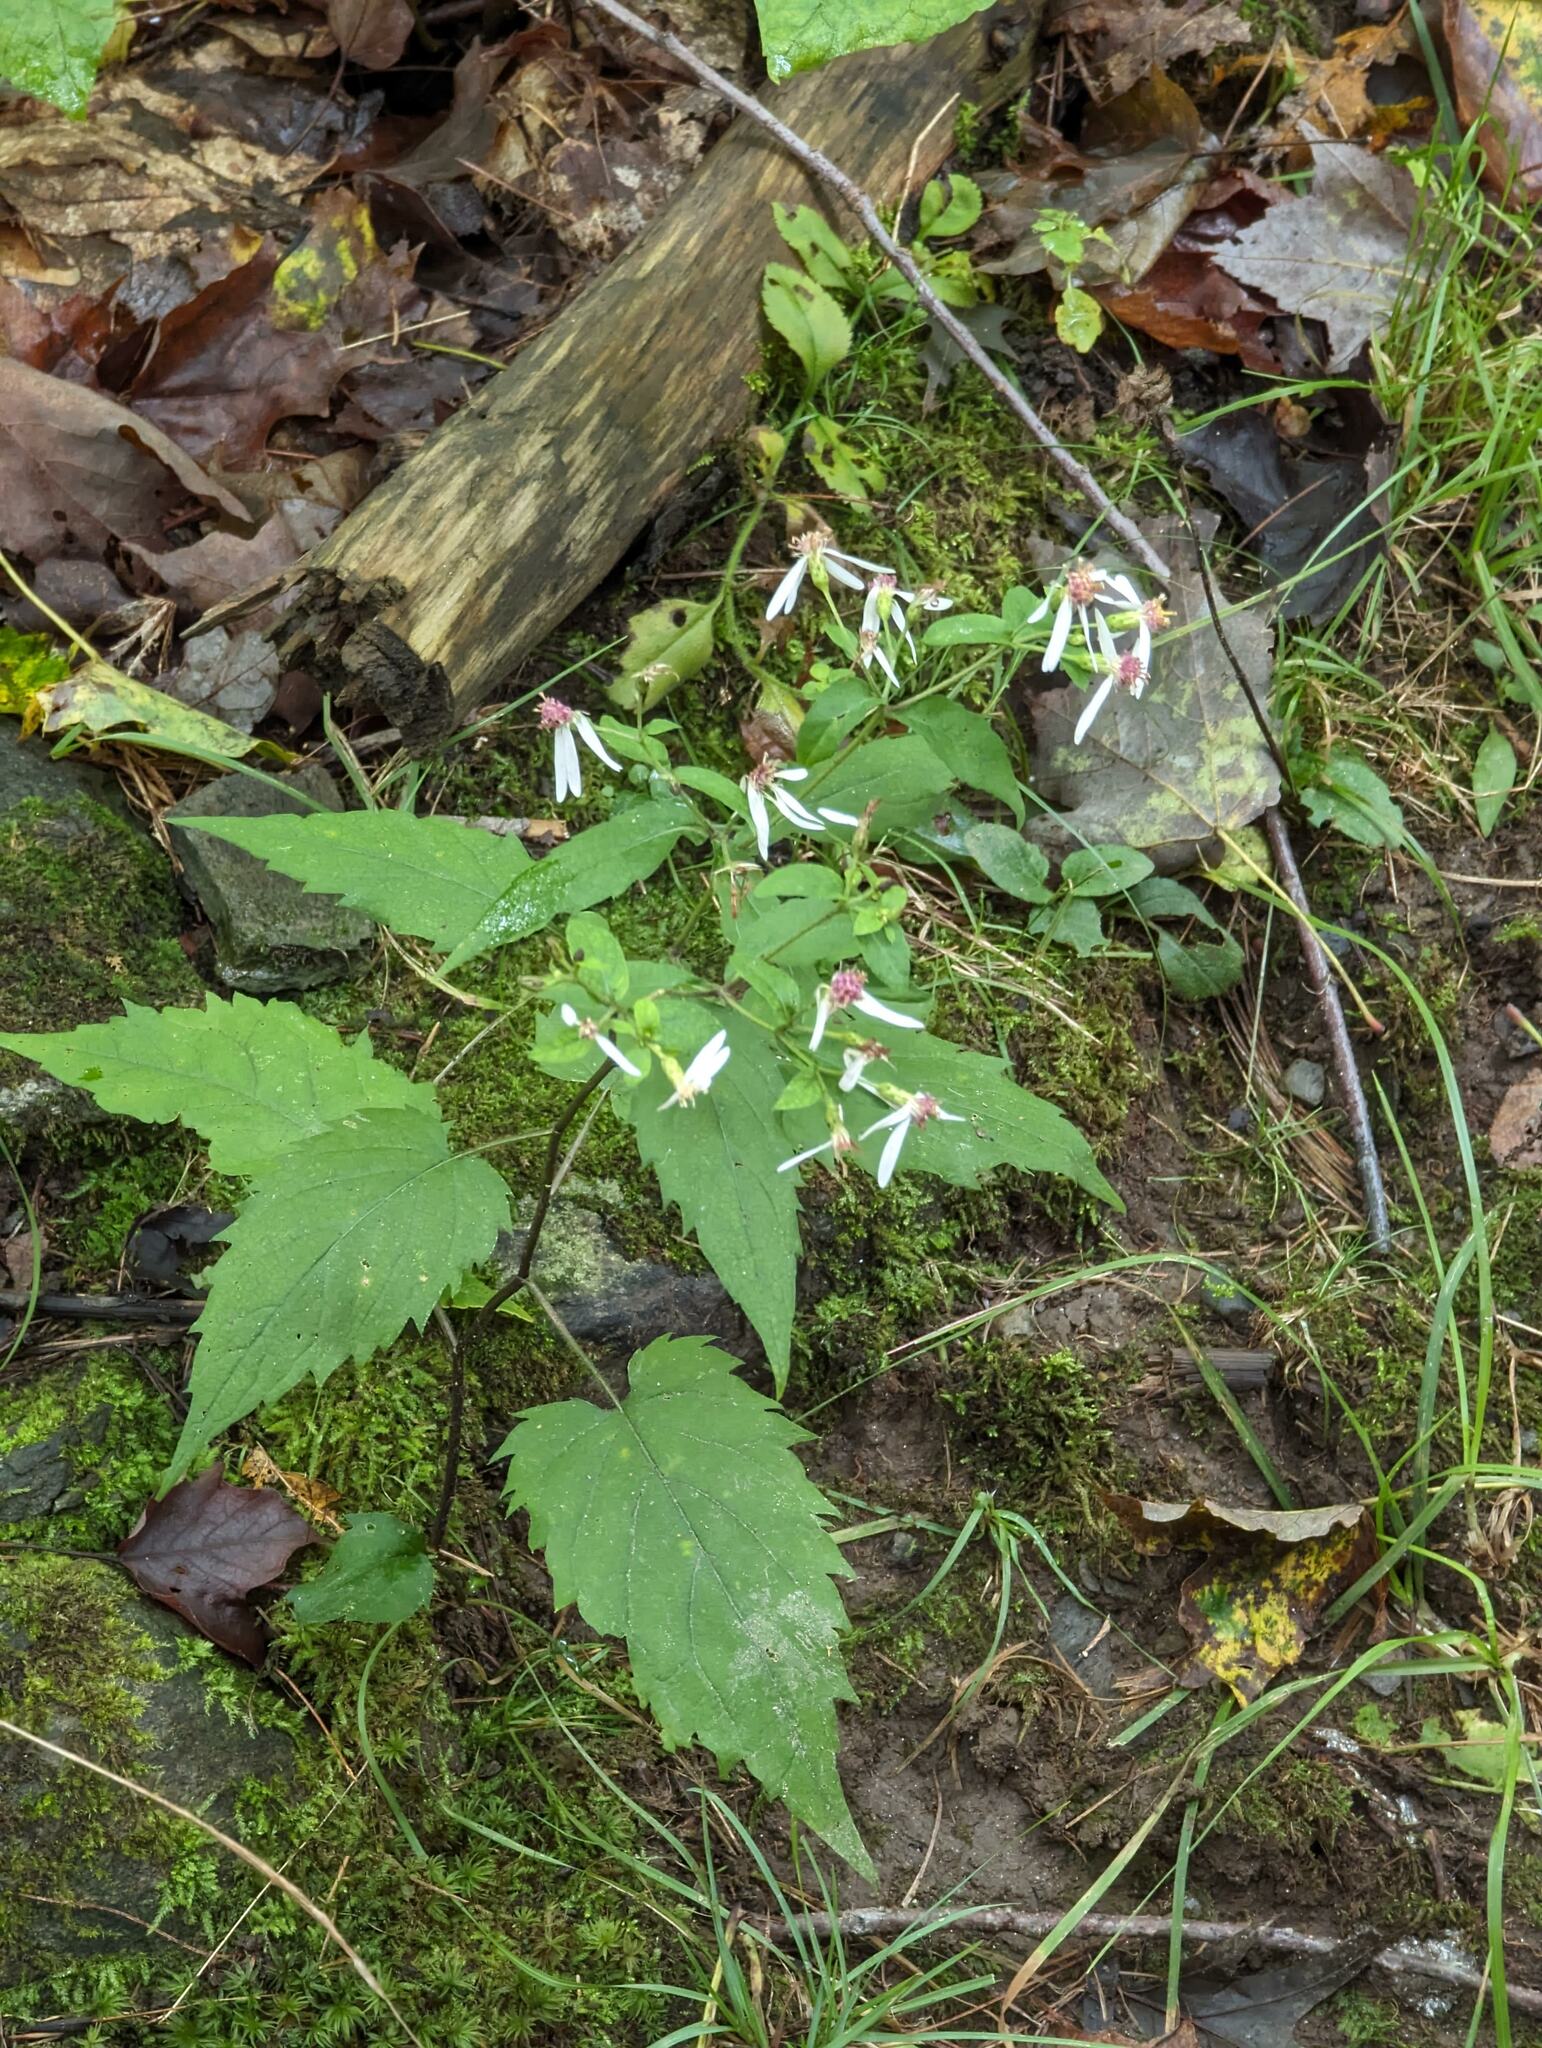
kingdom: Plantae
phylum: Tracheophyta
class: Magnoliopsida
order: Asterales
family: Asteraceae
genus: Eurybia
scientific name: Eurybia divaricata
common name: White wood aster
